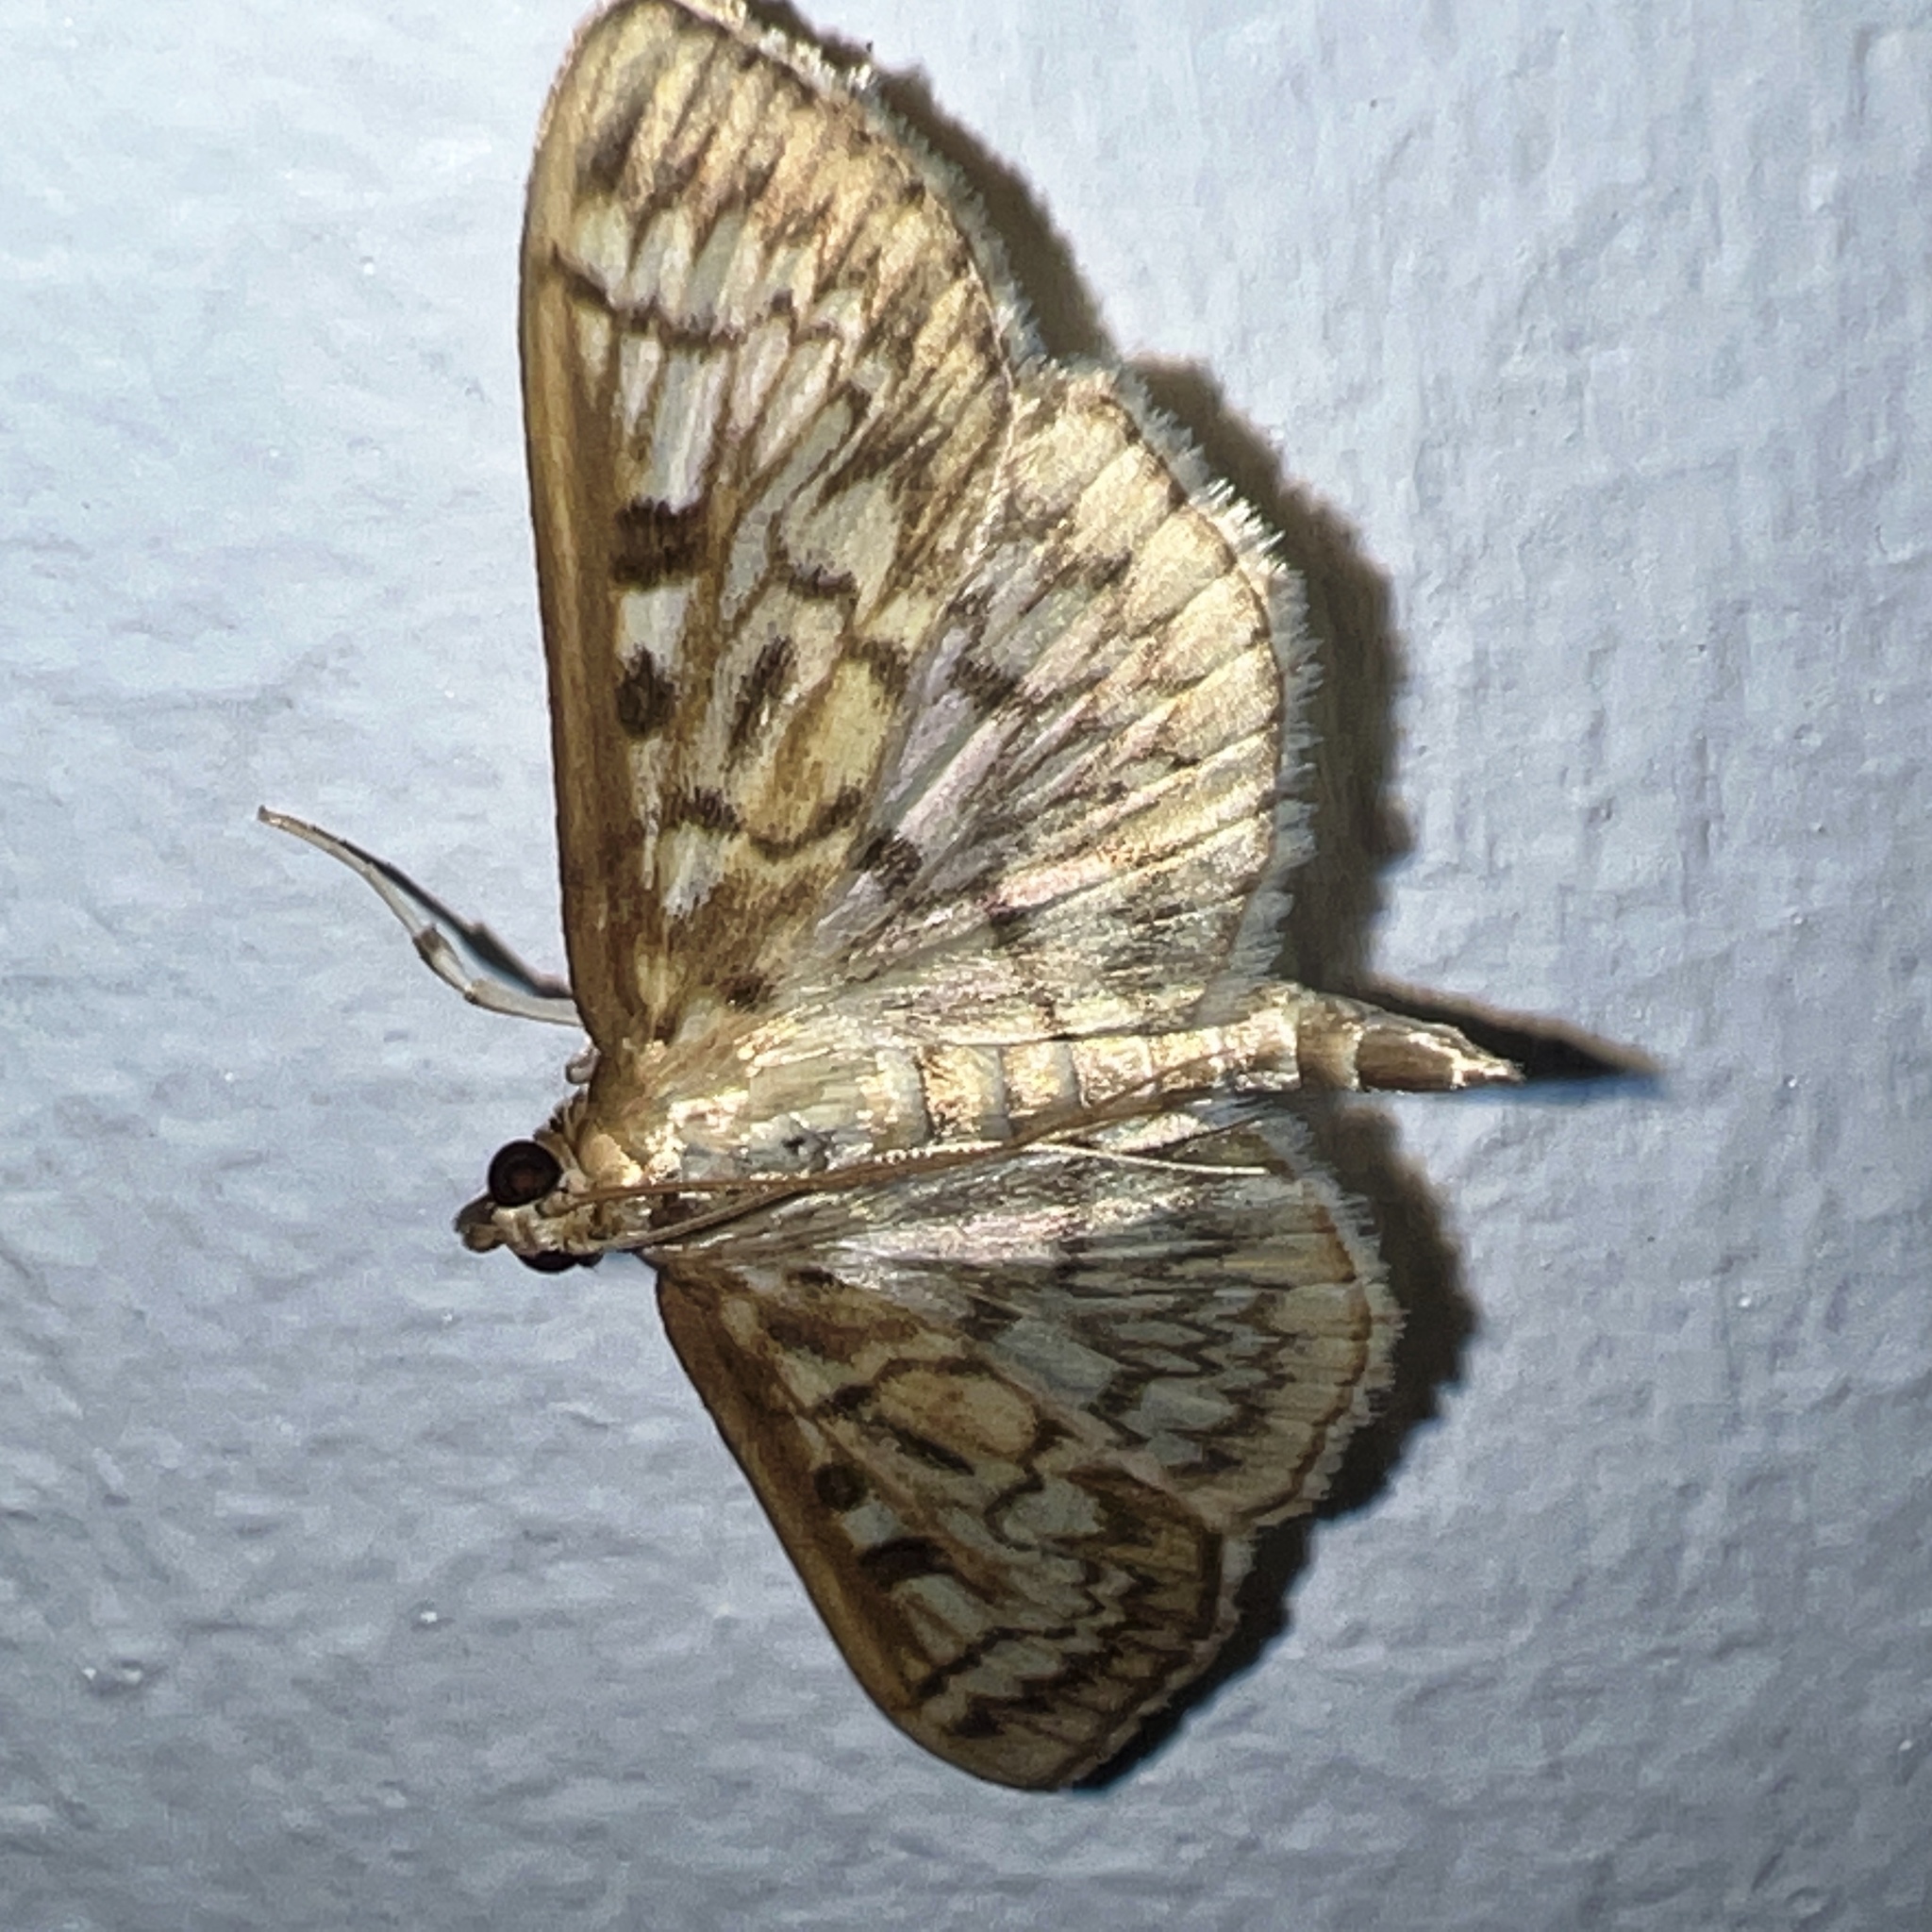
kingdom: Animalia
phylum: Arthropoda
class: Insecta
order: Lepidoptera
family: Crambidae
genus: Herpetogramma
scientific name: Herpetogramma pertextalis
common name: Bold-feathered grass moth
